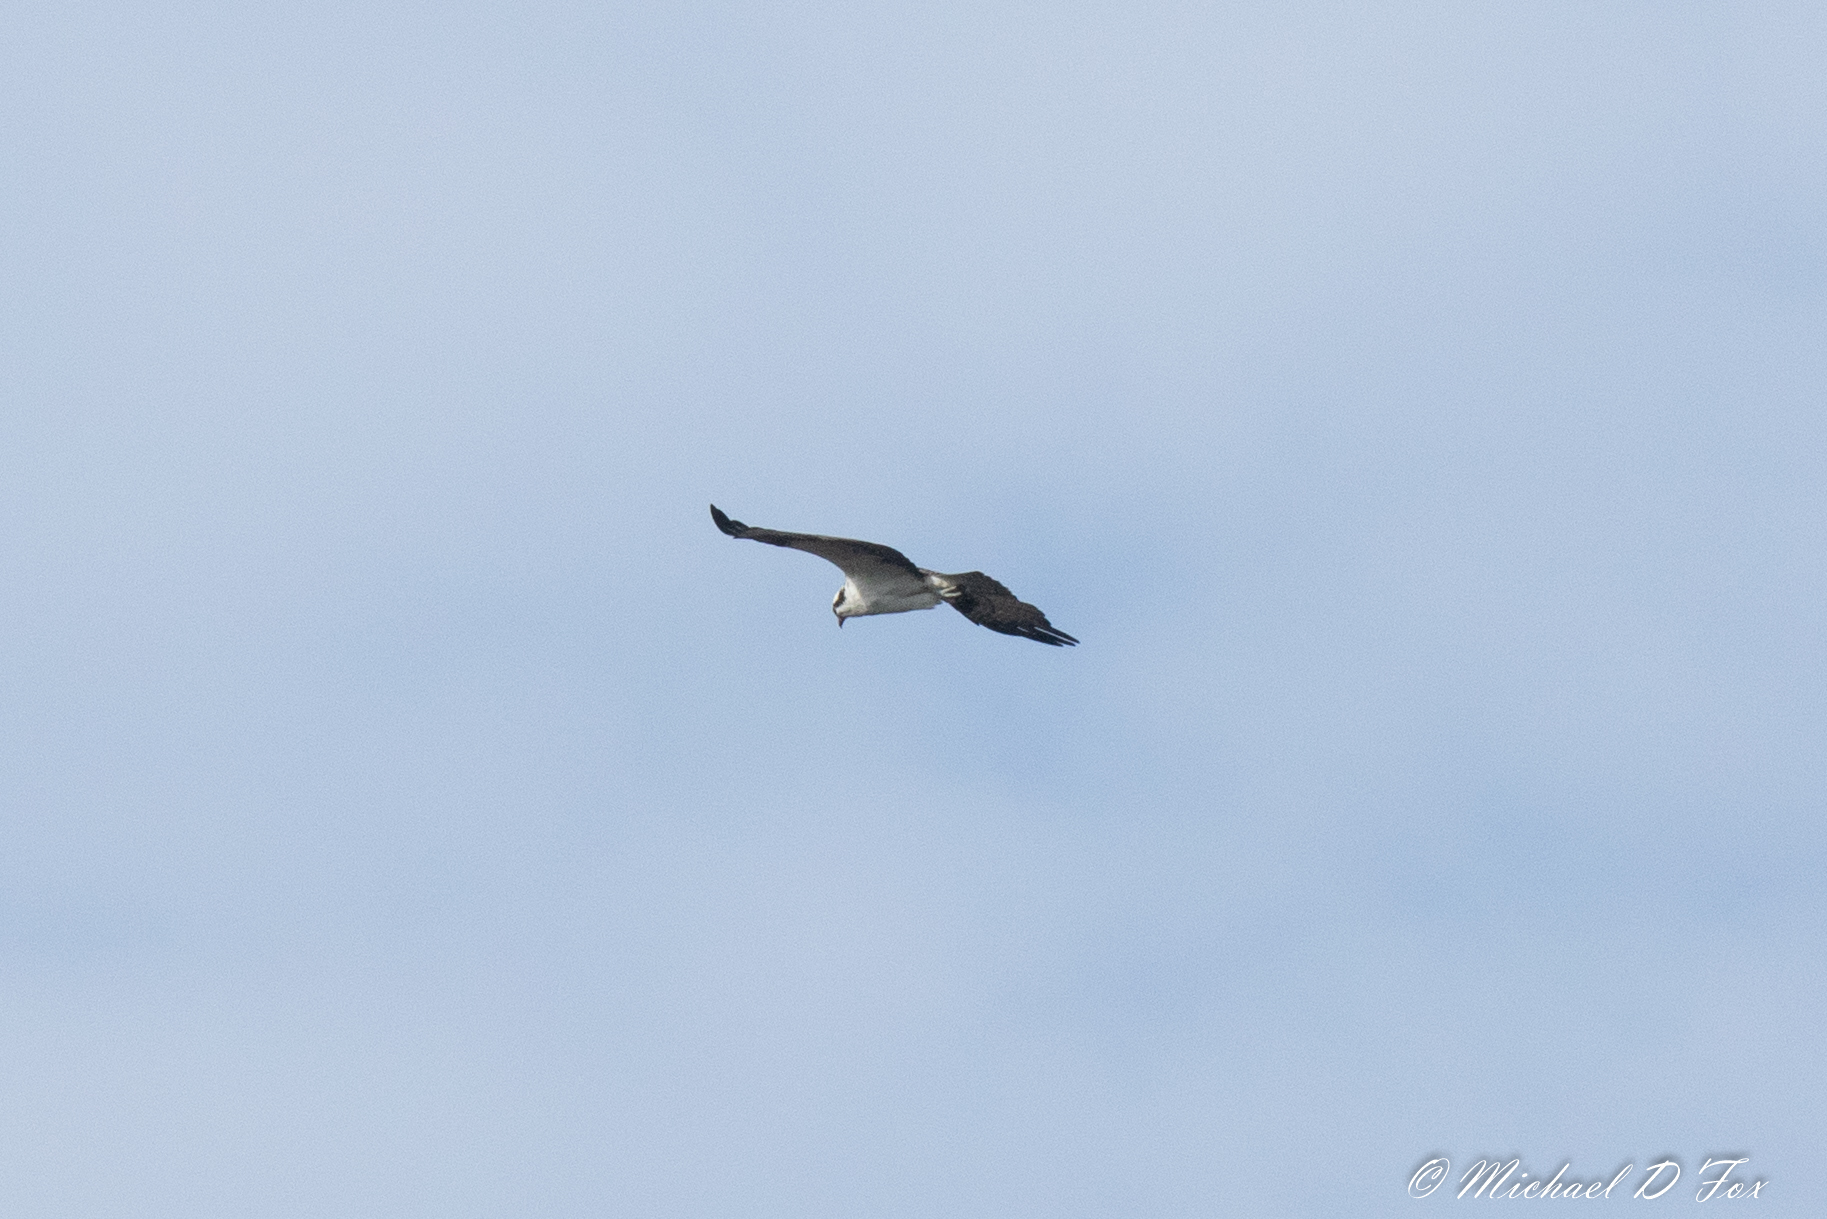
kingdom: Animalia
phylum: Chordata
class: Aves
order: Accipitriformes
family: Pandionidae
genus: Pandion
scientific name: Pandion haliaetus
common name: Osprey
